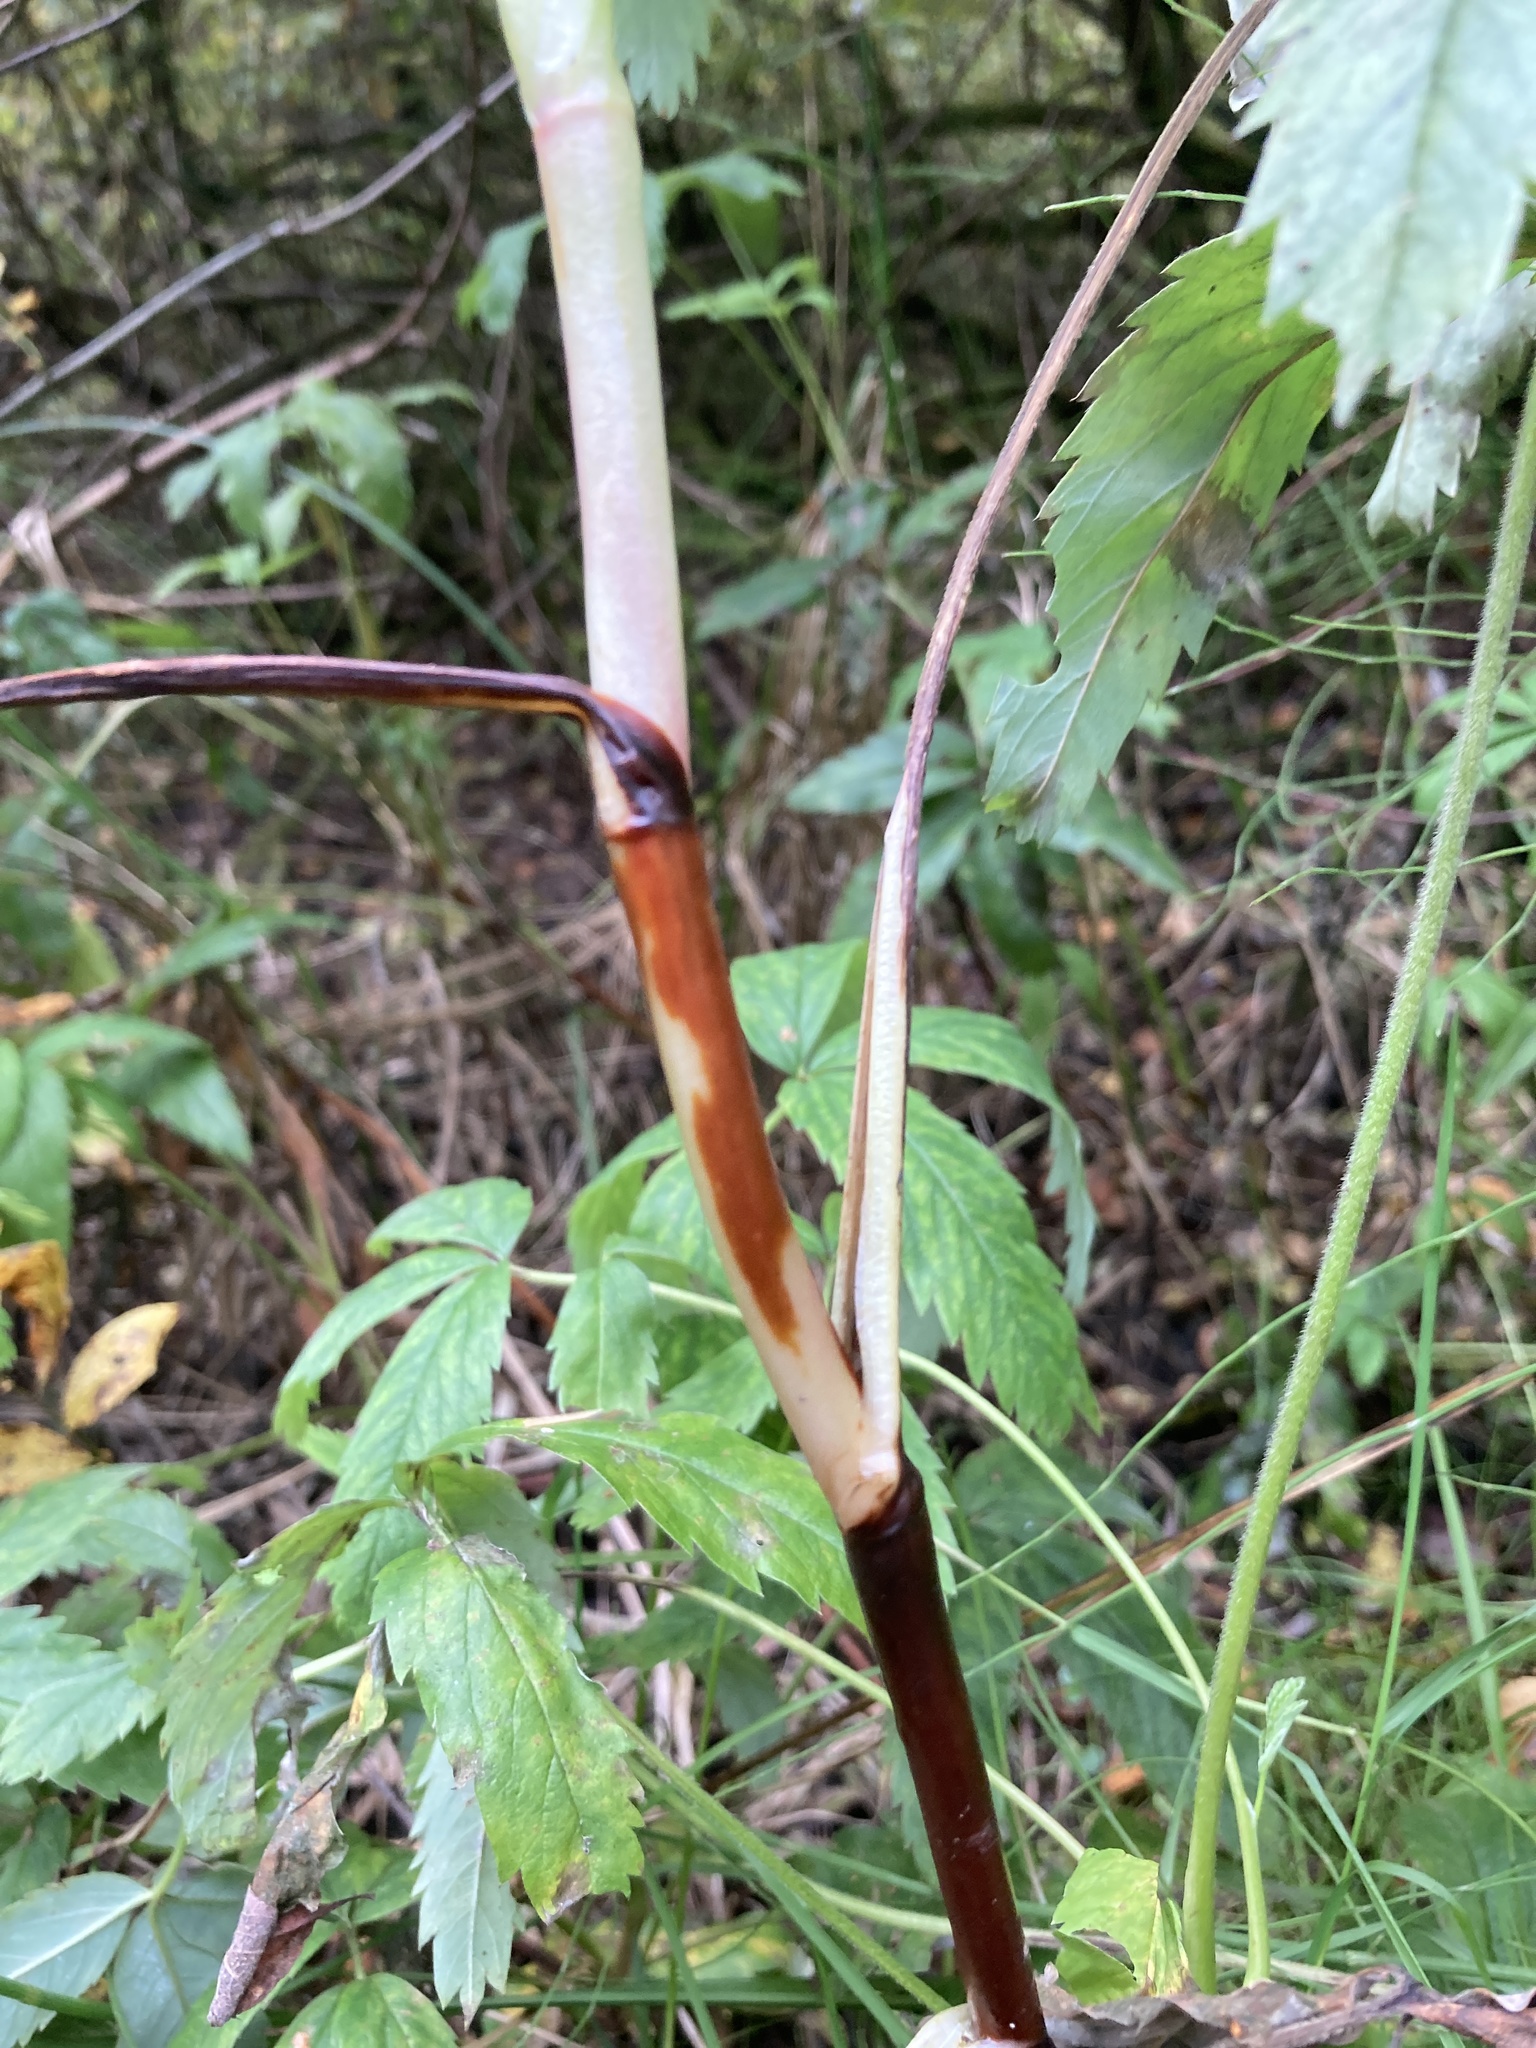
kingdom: Plantae
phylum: Tracheophyta
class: Magnoliopsida
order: Rosales
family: Rosaceae
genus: Comarum
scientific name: Comarum palustre
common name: Marsh cinquefoil
